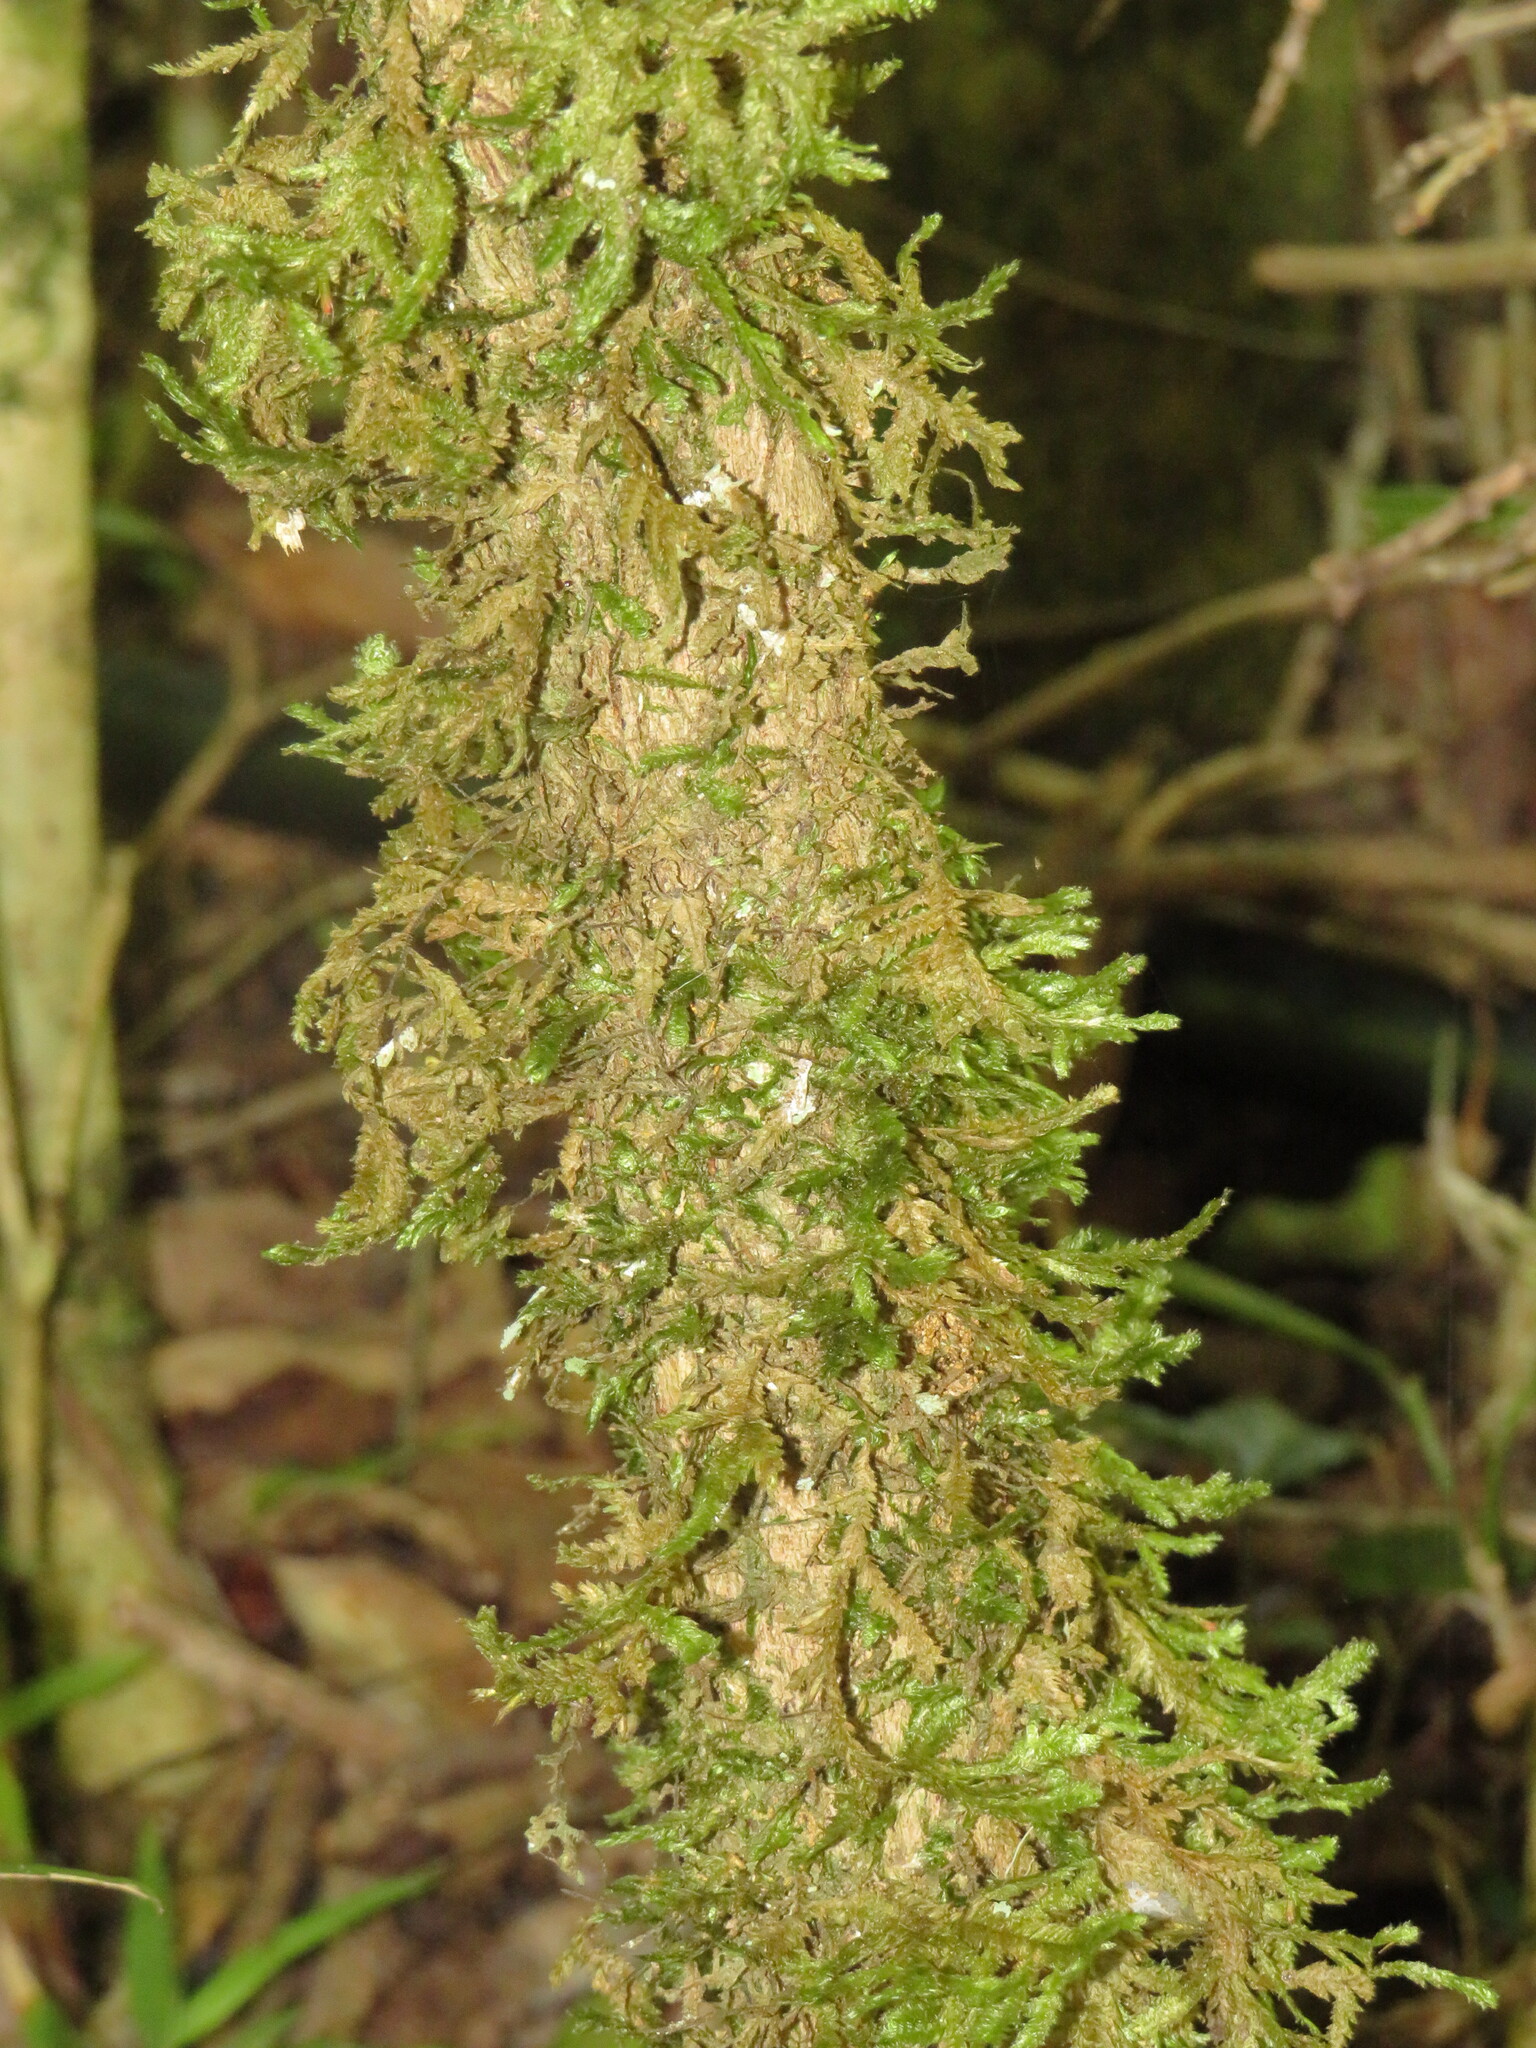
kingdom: Plantae
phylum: Bryophyta
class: Bryopsida
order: Hypnales
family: Neckeraceae
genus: Alleniella
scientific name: Alleniella ehrenbergii
